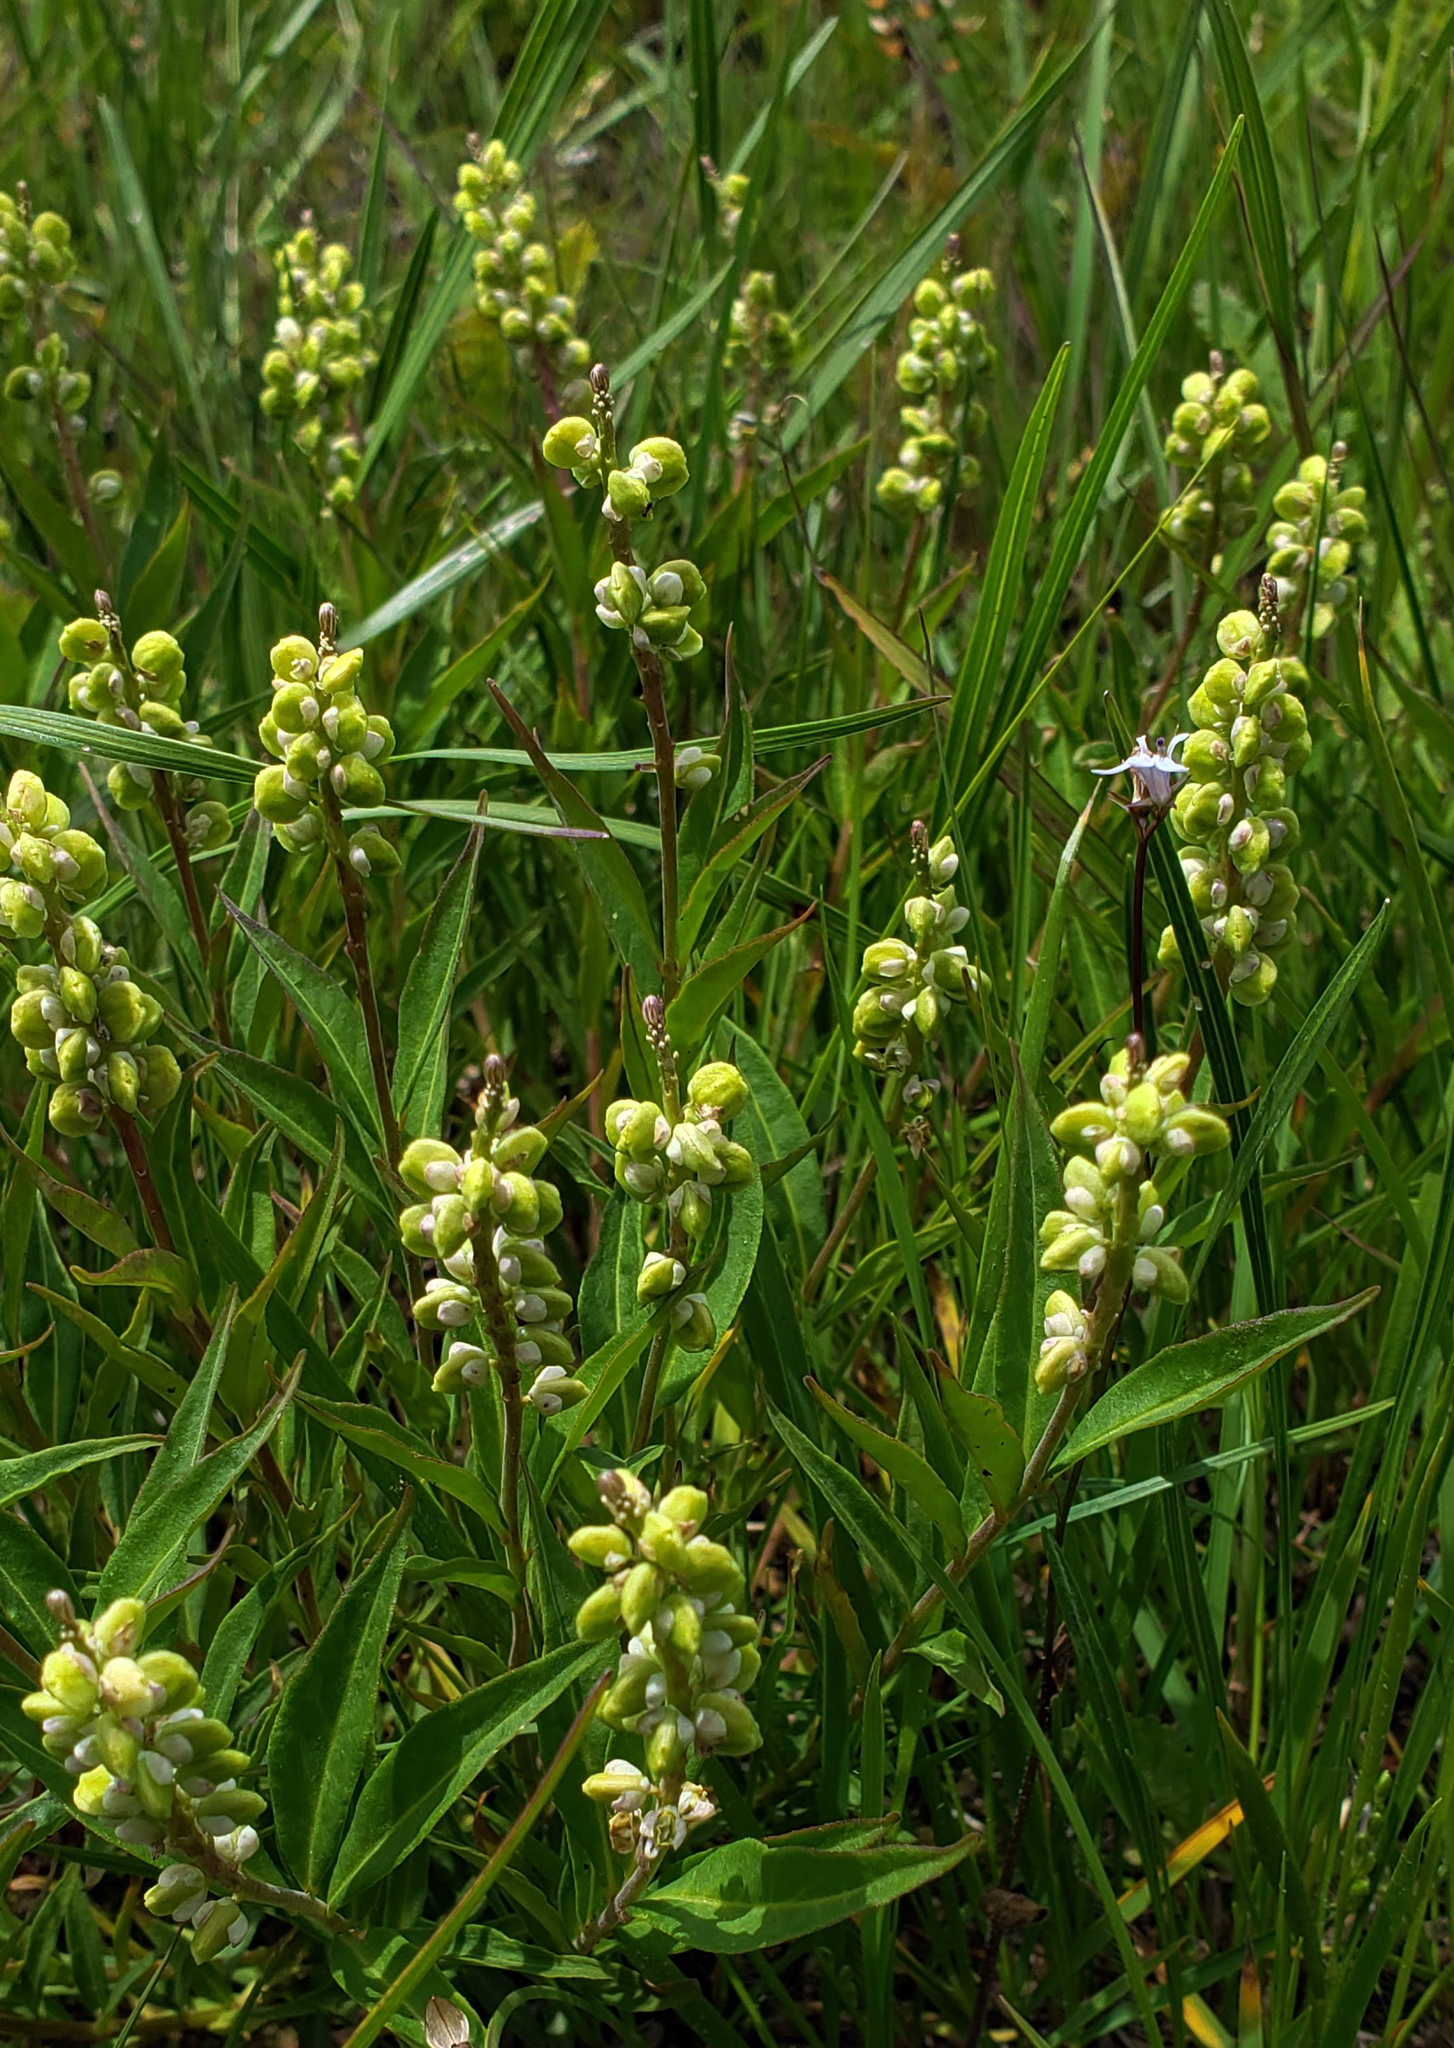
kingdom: Plantae
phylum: Tracheophyta
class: Magnoliopsida
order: Fabales
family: Polygalaceae
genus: Polygala
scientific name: Polygala senega
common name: Seneca snakeroot
